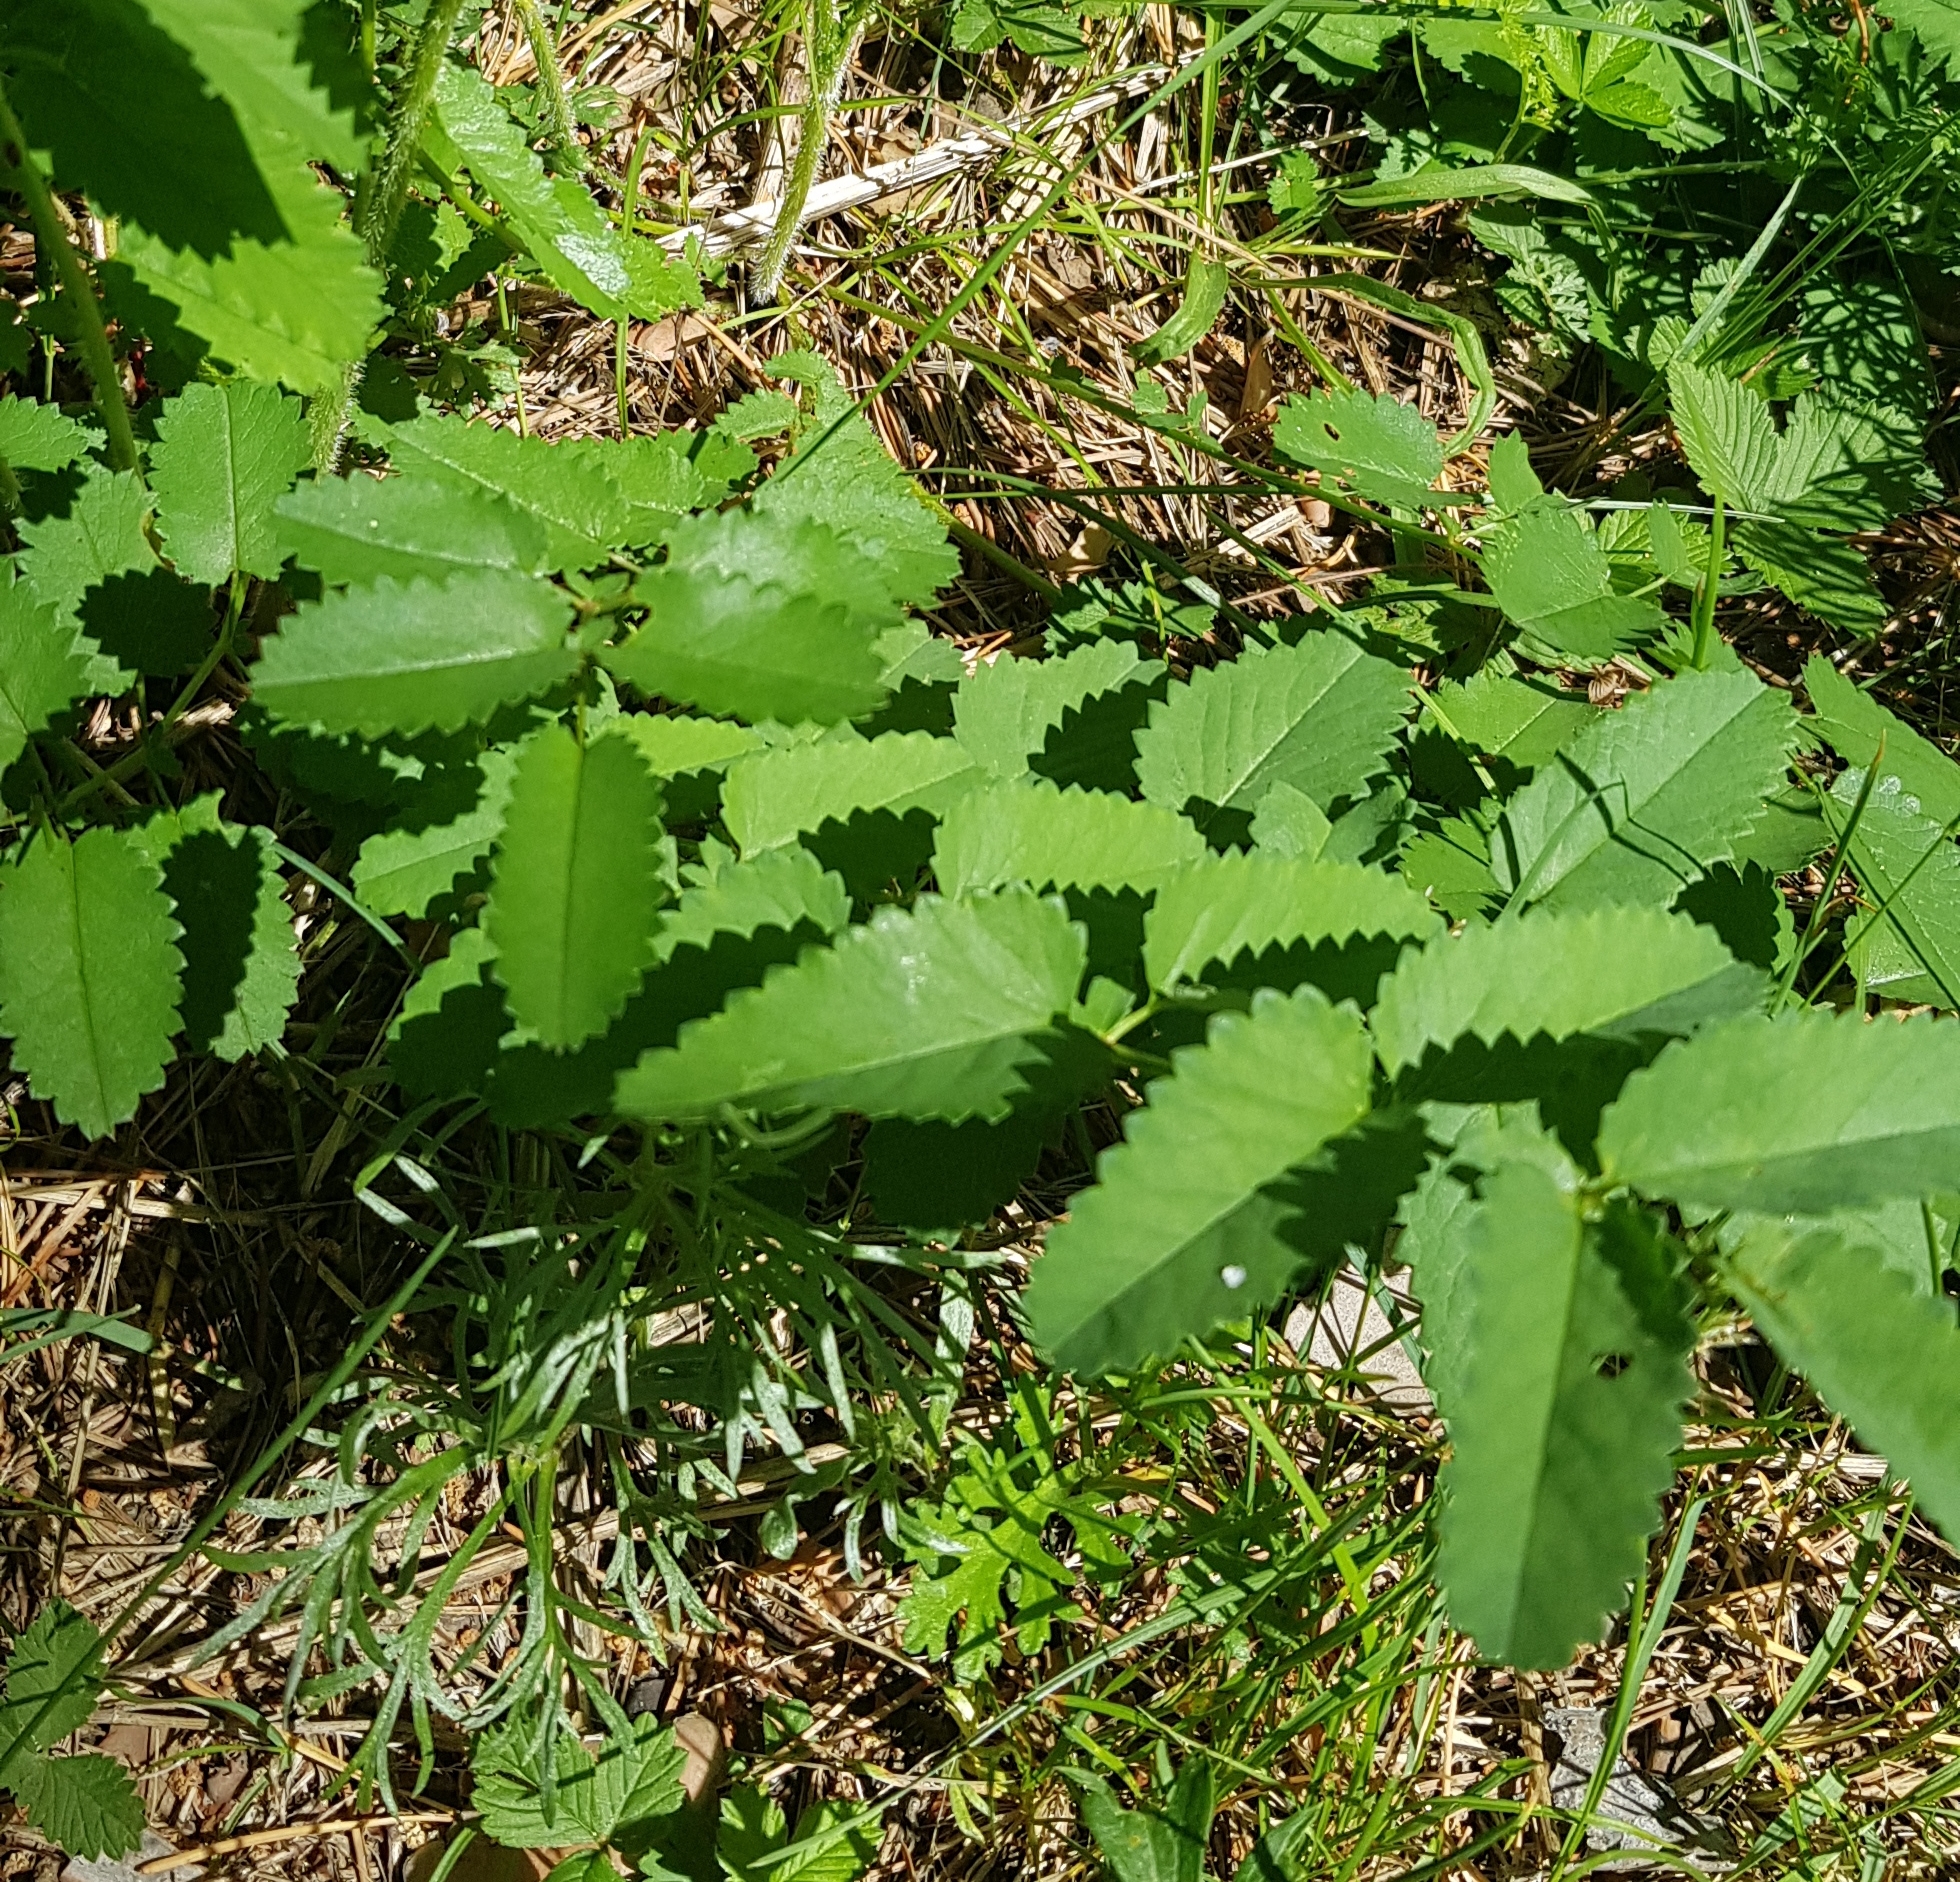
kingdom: Plantae
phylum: Tracheophyta
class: Magnoliopsida
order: Rosales
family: Rosaceae
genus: Sanguisorba
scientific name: Sanguisorba officinalis
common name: Great burnet
